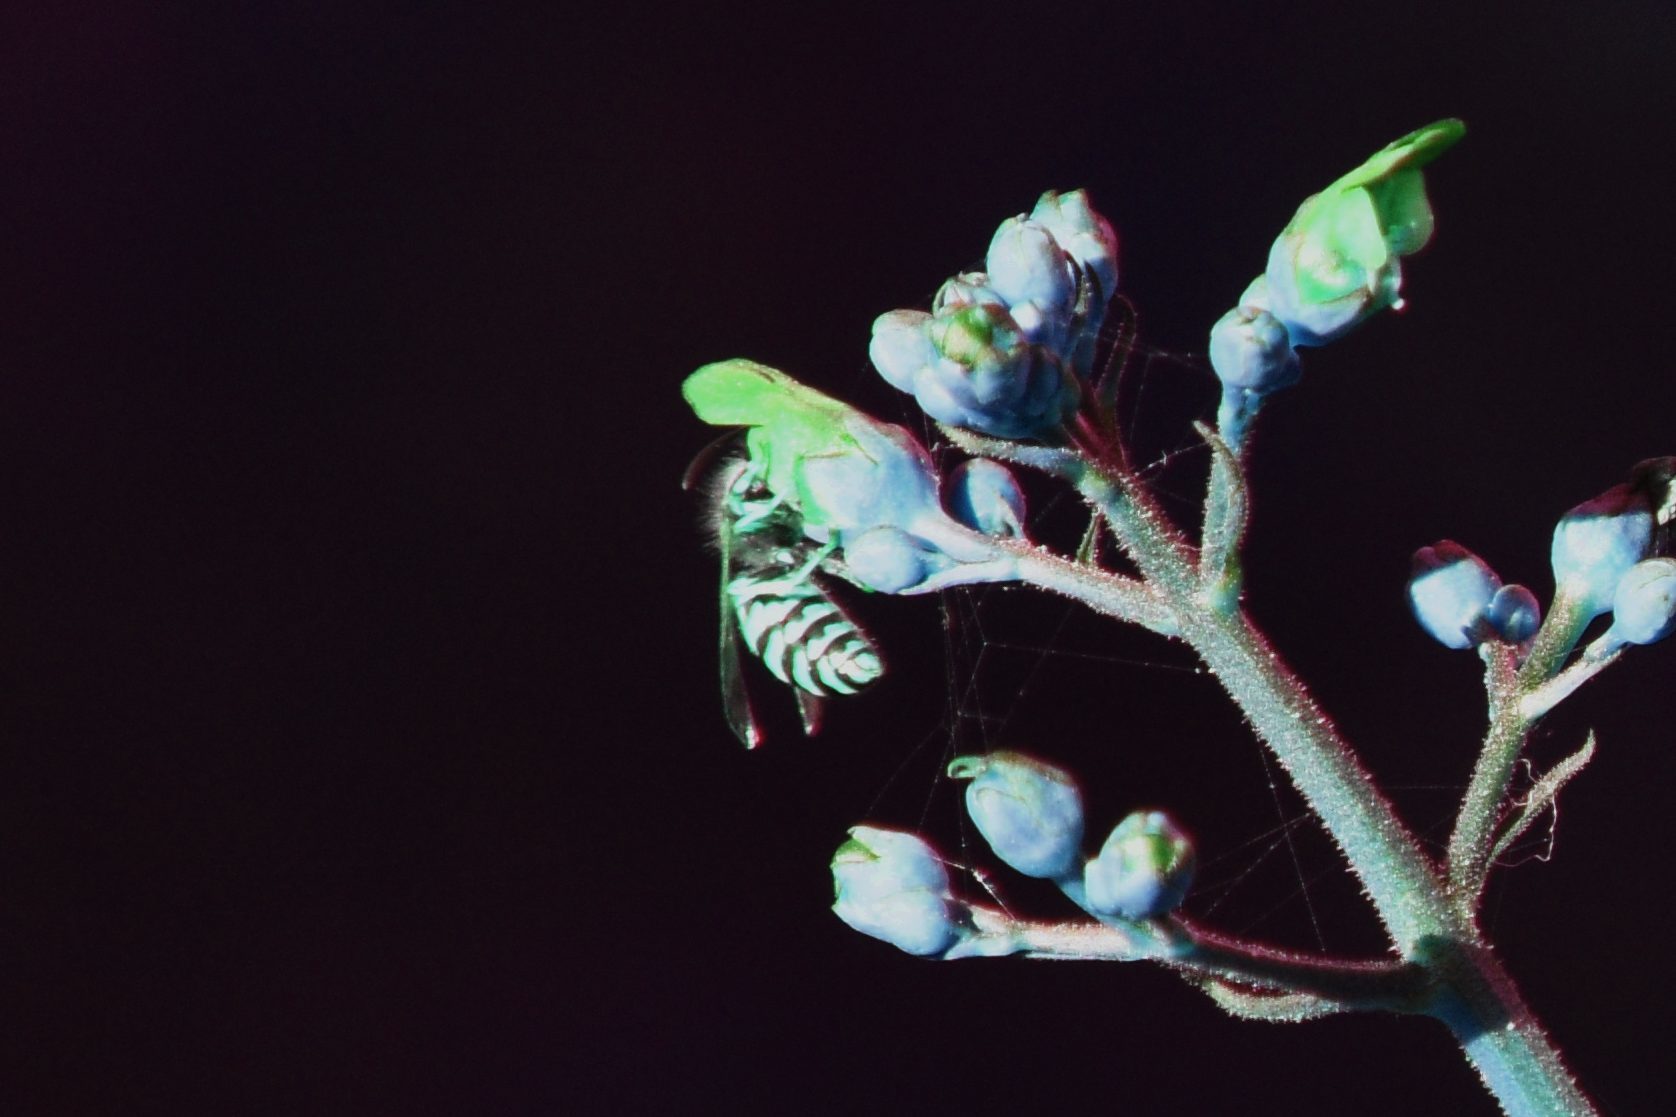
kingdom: Animalia
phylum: Arthropoda
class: Insecta
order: Hymenoptera
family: Vespidae
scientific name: Vespidae
